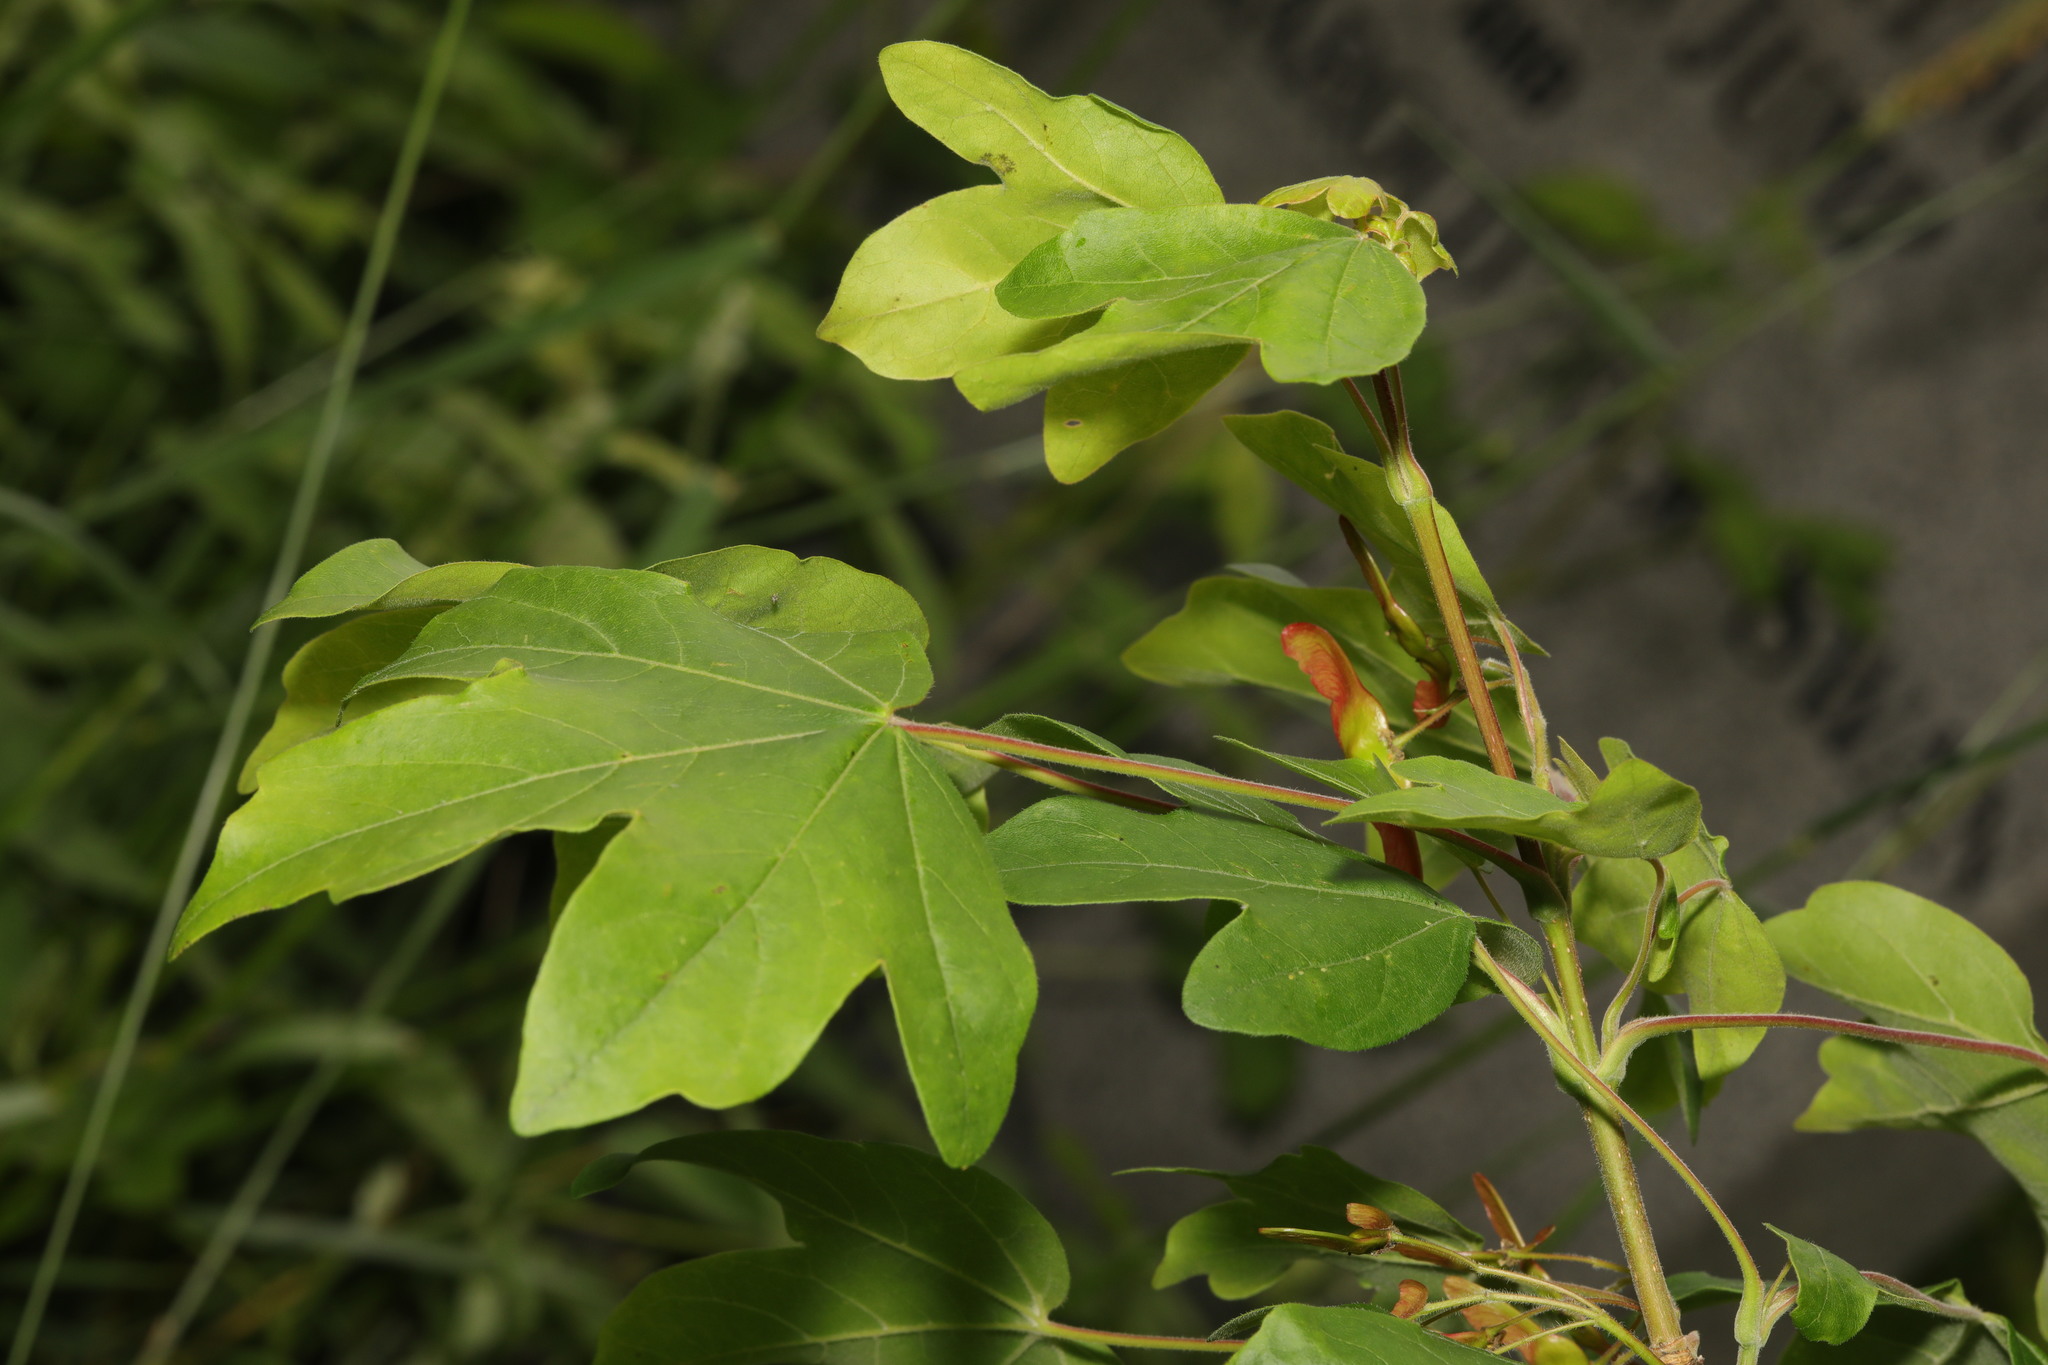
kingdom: Plantae
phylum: Tracheophyta
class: Magnoliopsida
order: Sapindales
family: Sapindaceae
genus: Acer
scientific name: Acer campestre
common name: Field maple
